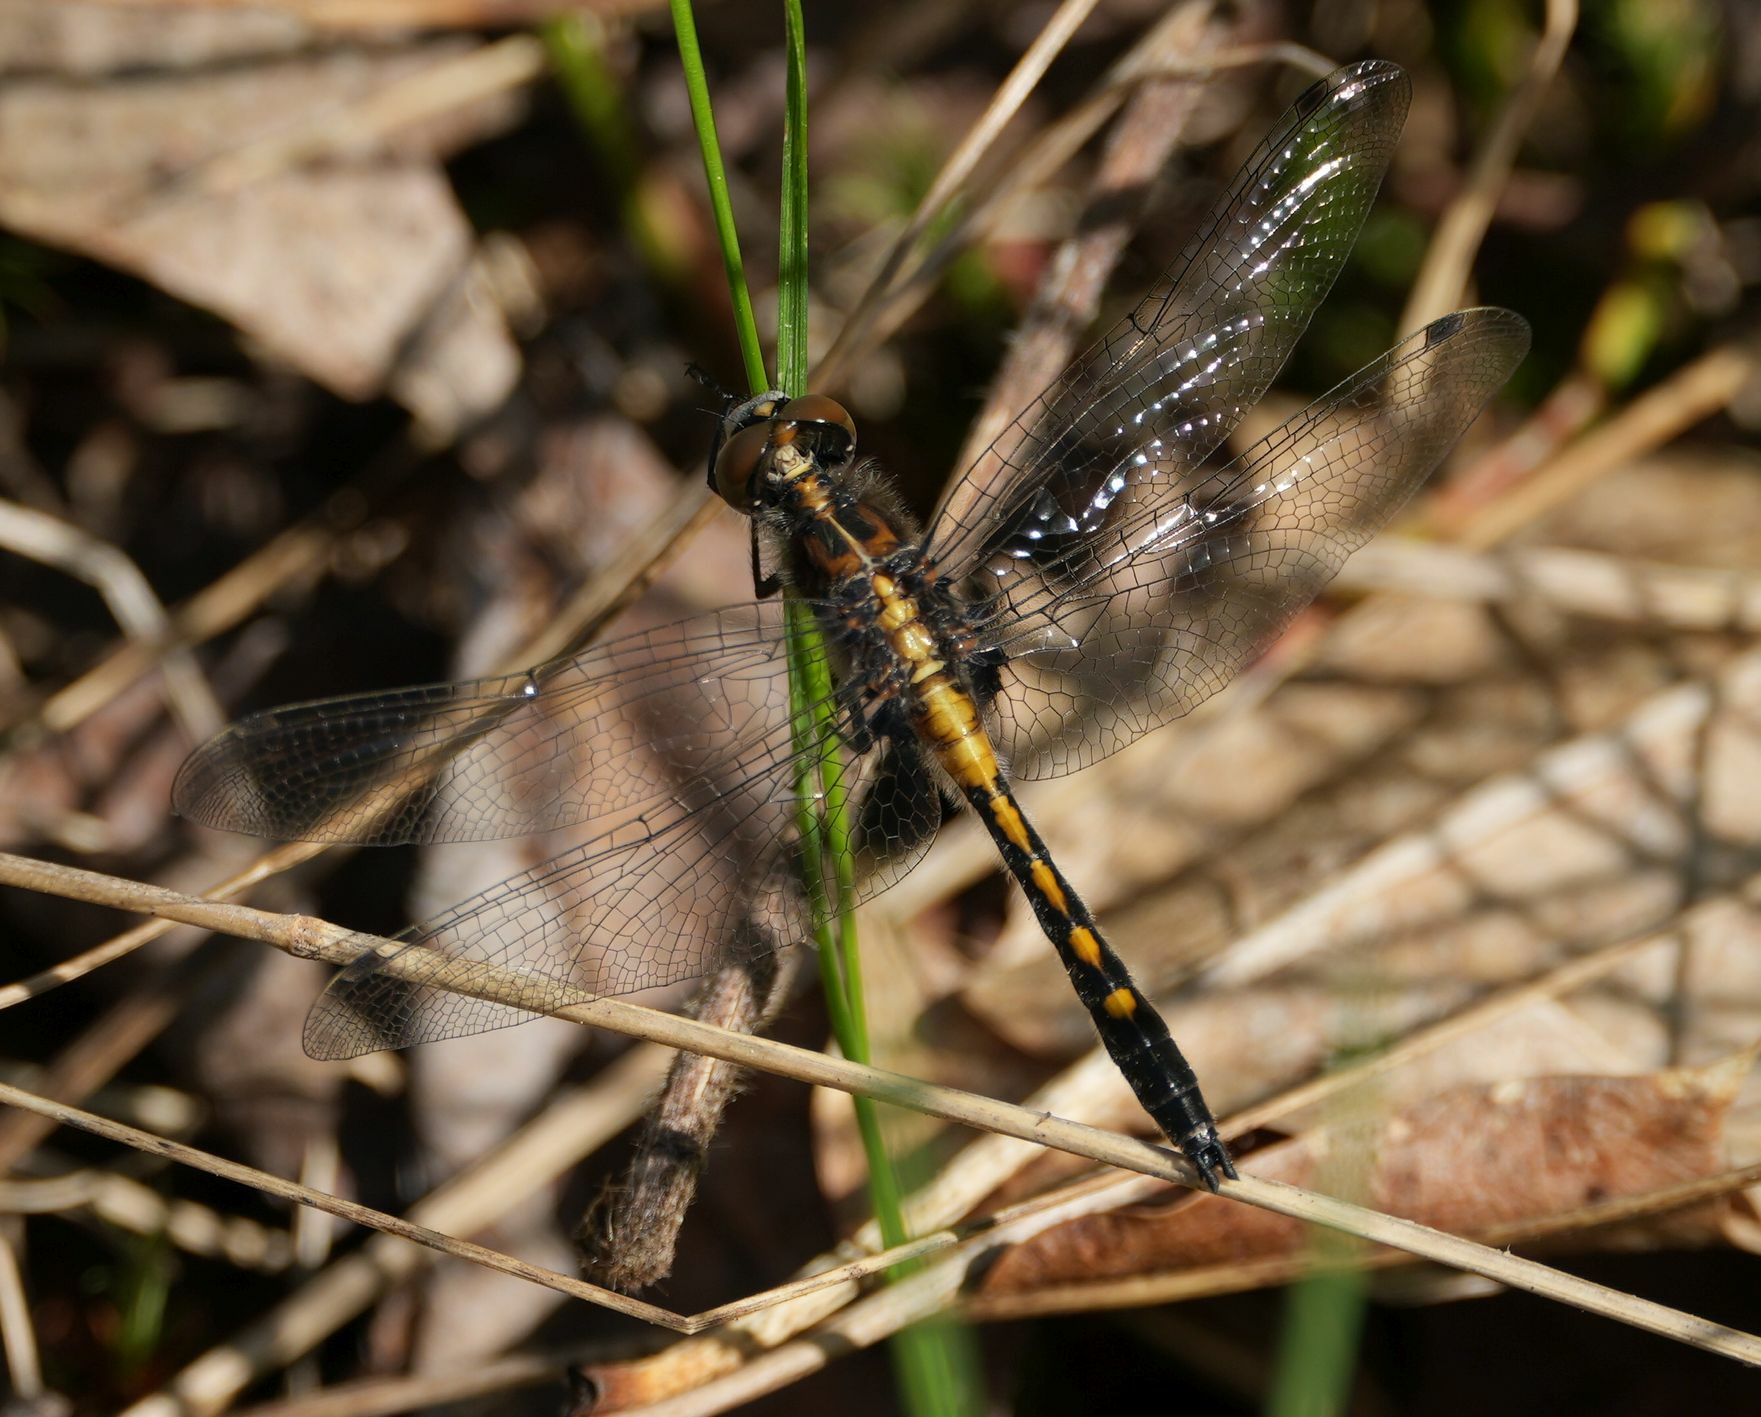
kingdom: Animalia
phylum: Arthropoda
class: Insecta
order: Odonata
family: Libellulidae
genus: Leucorrhinia
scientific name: Leucorrhinia intacta
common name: Dot-tailed whiteface
